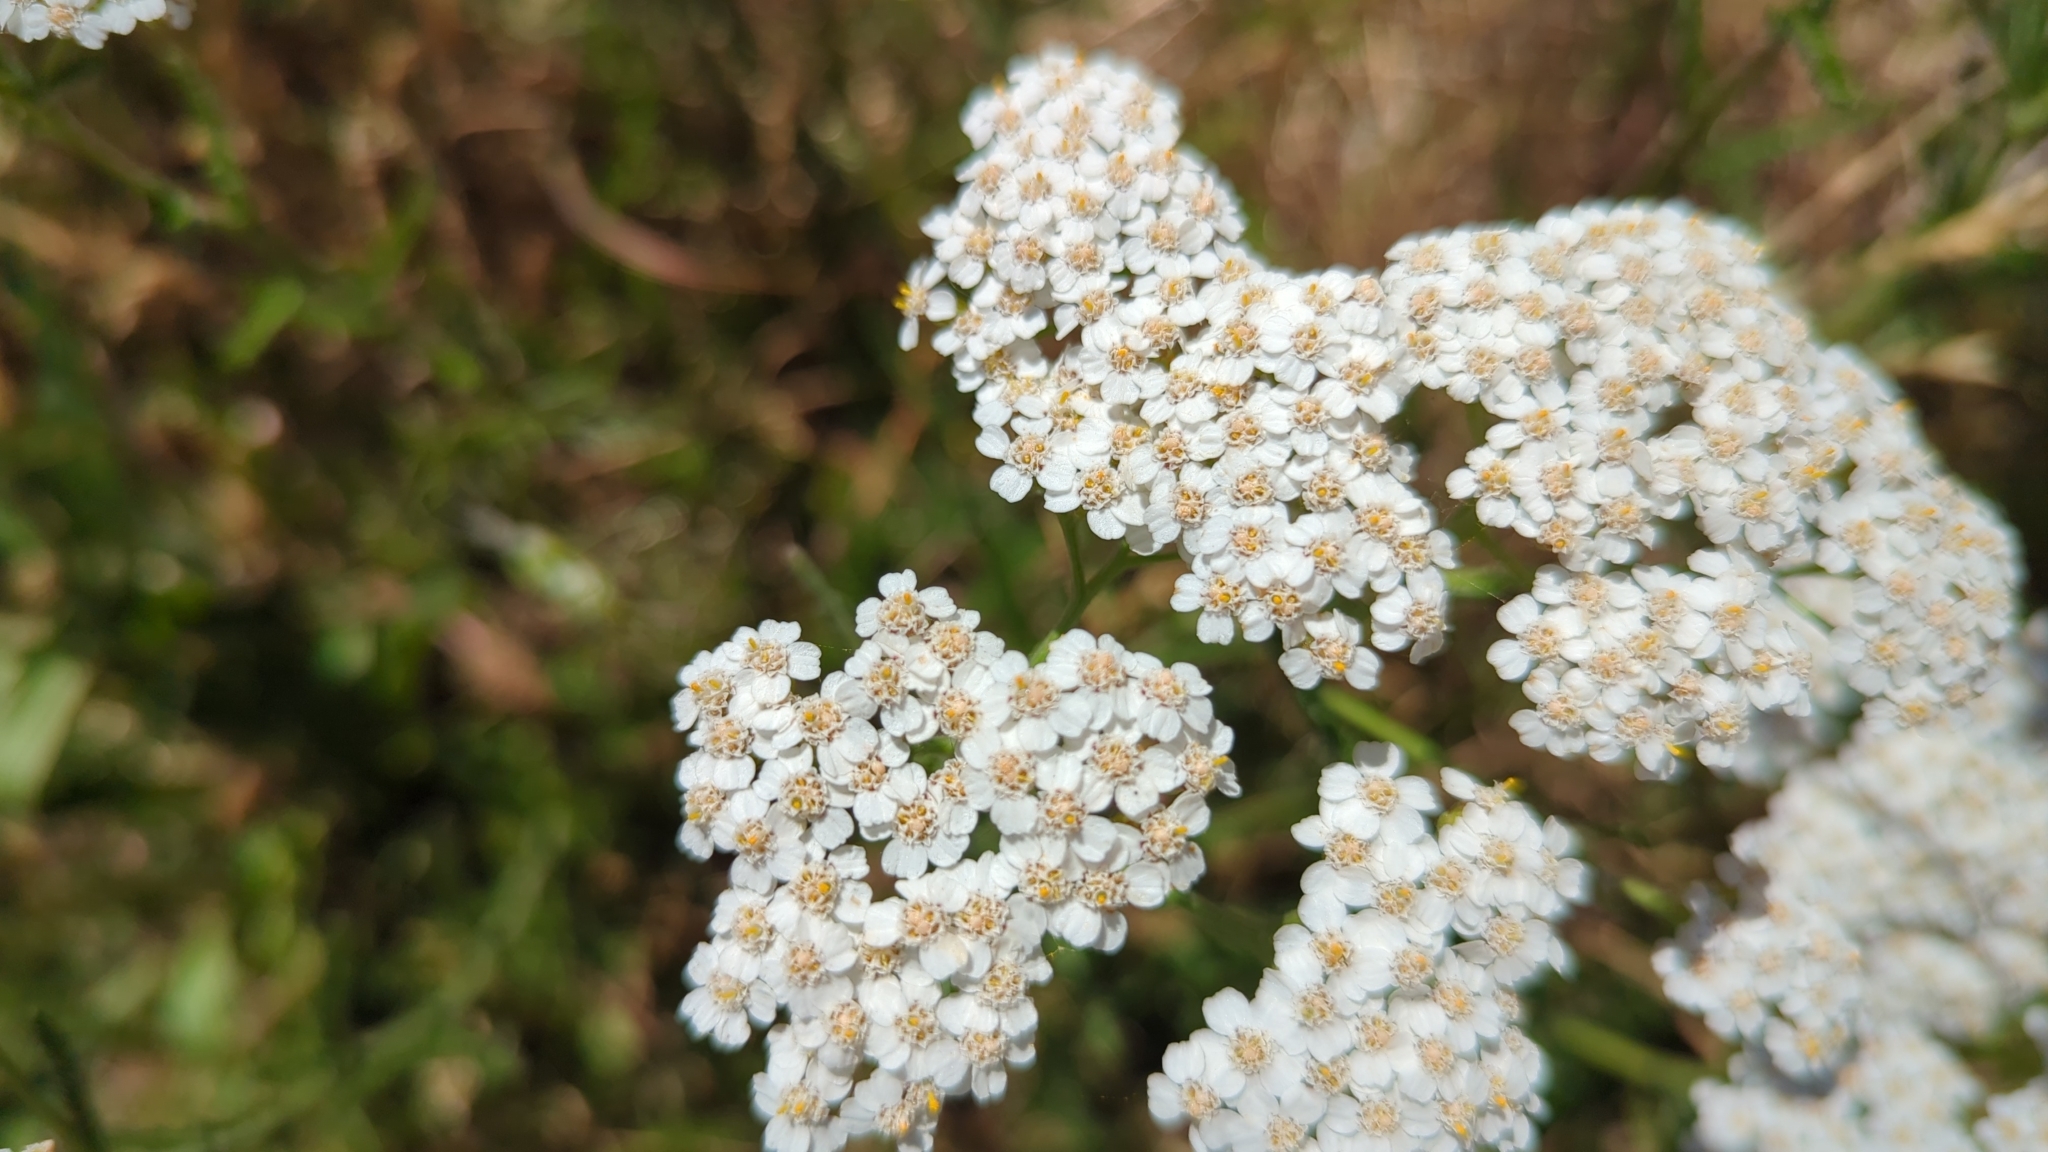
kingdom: Plantae
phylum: Tracheophyta
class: Magnoliopsida
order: Asterales
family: Asteraceae
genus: Achillea
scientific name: Achillea millefolium
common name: Yarrow
